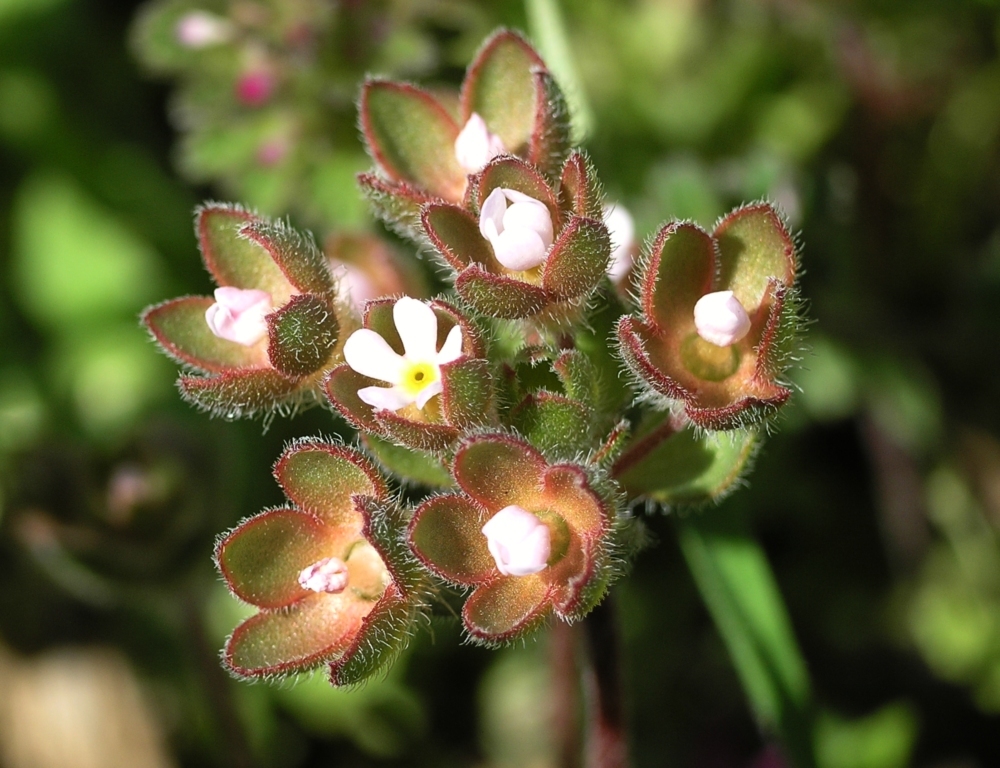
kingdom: Plantae
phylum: Tracheophyta
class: Magnoliopsida
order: Ericales
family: Primulaceae
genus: Androsace
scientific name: Androsace maxima
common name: Annual androsace
